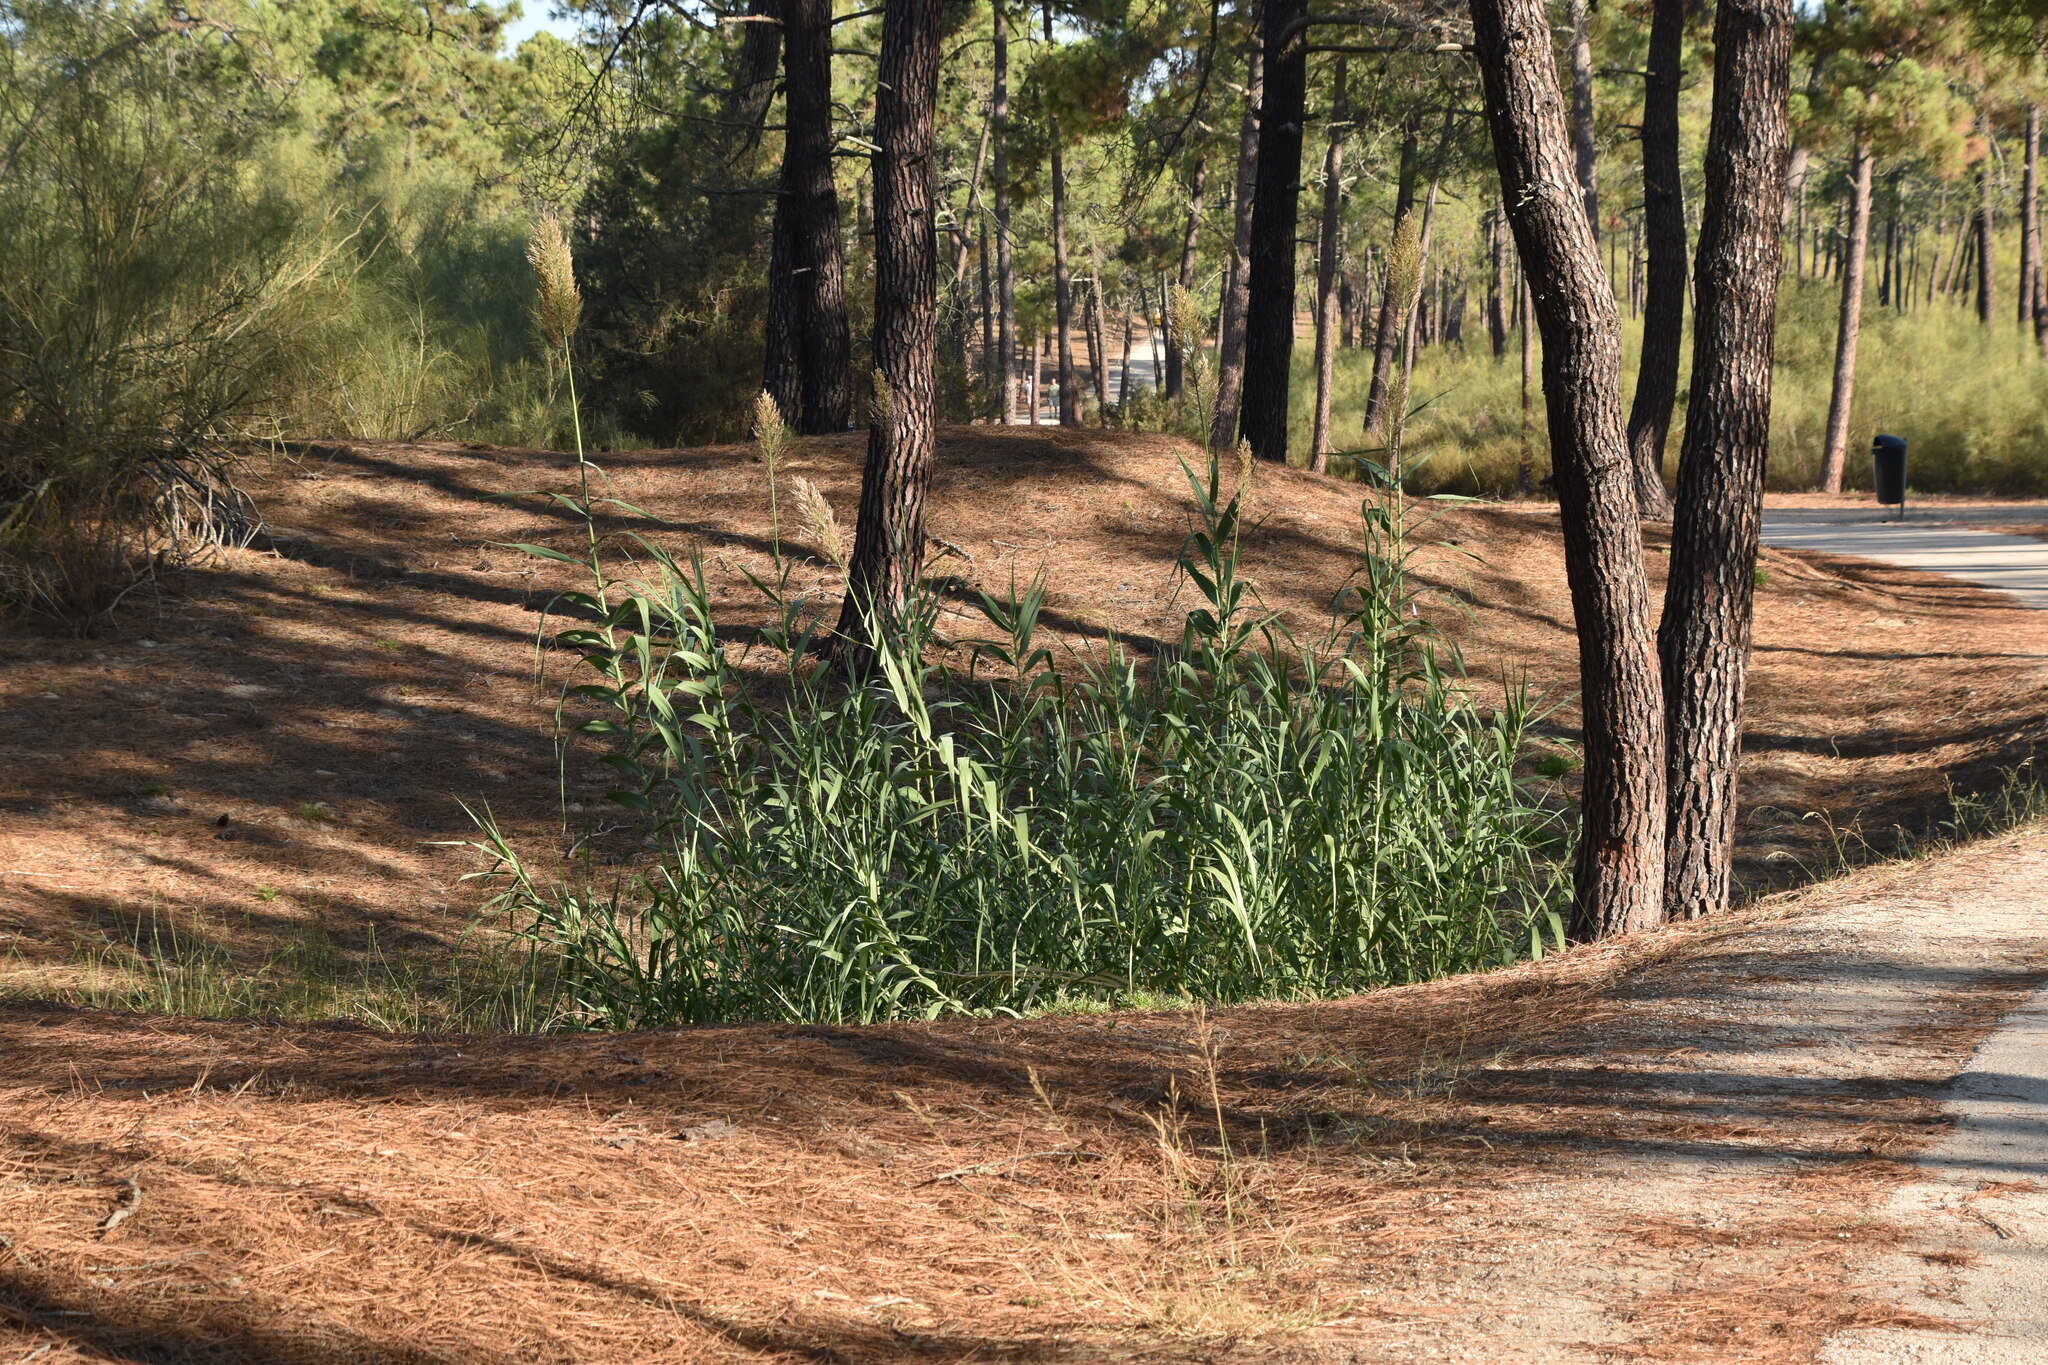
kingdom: Plantae
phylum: Tracheophyta
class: Liliopsida
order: Poales
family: Poaceae
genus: Arundo
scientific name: Arundo donax
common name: Giant reed
